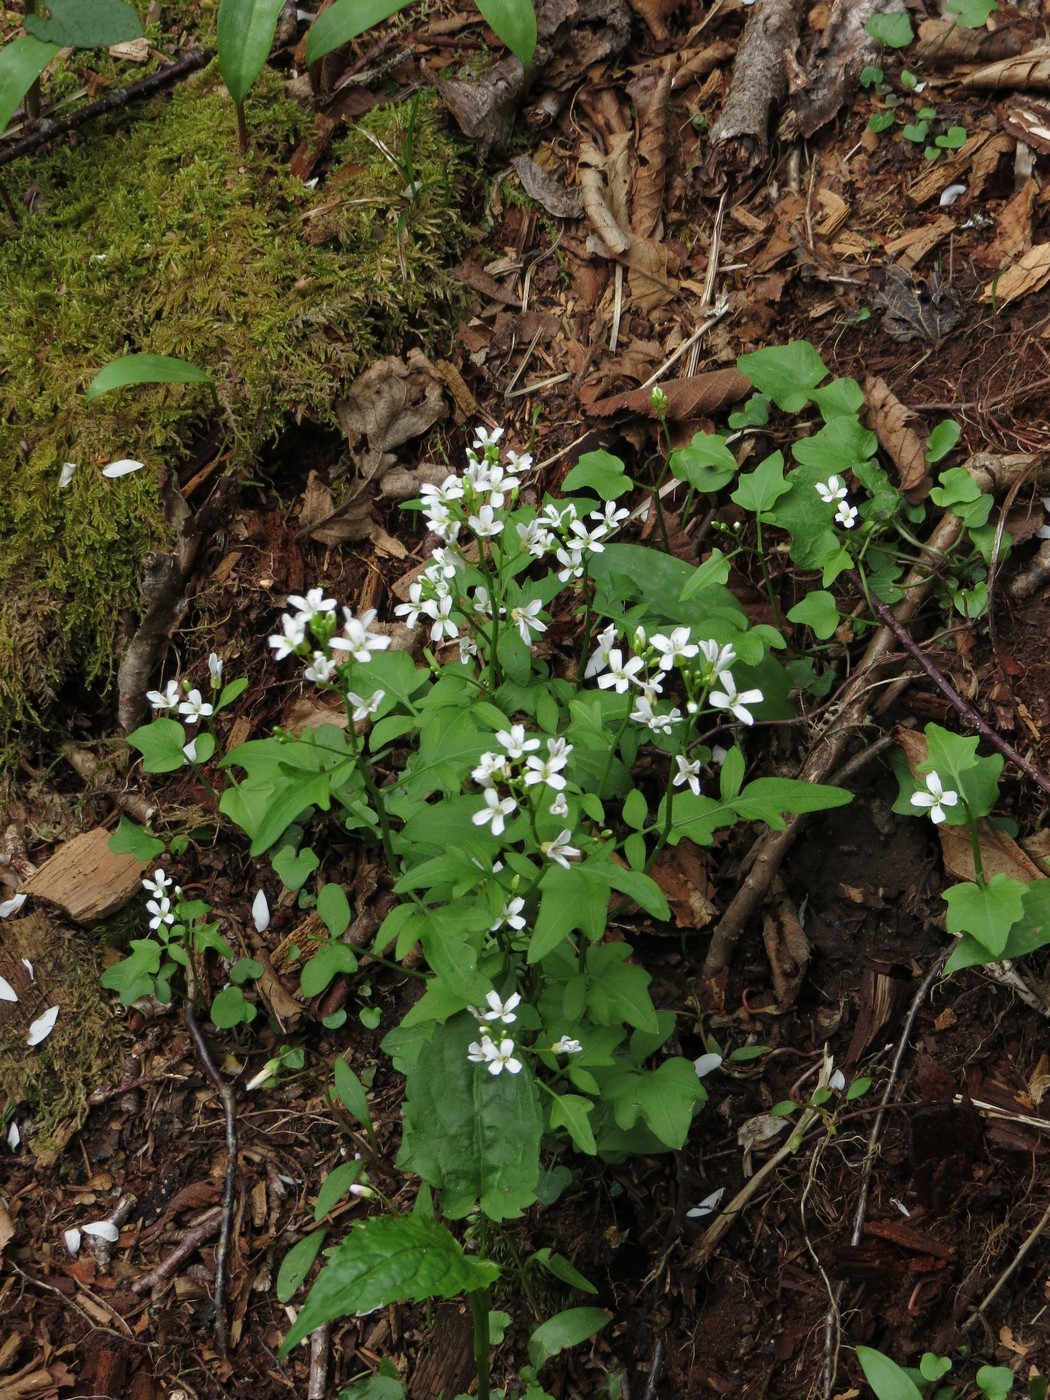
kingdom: Plantae
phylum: Tracheophyta
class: Magnoliopsida
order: Brassicales
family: Brassicaceae
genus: Cardamine
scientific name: Cardamine clematitis
